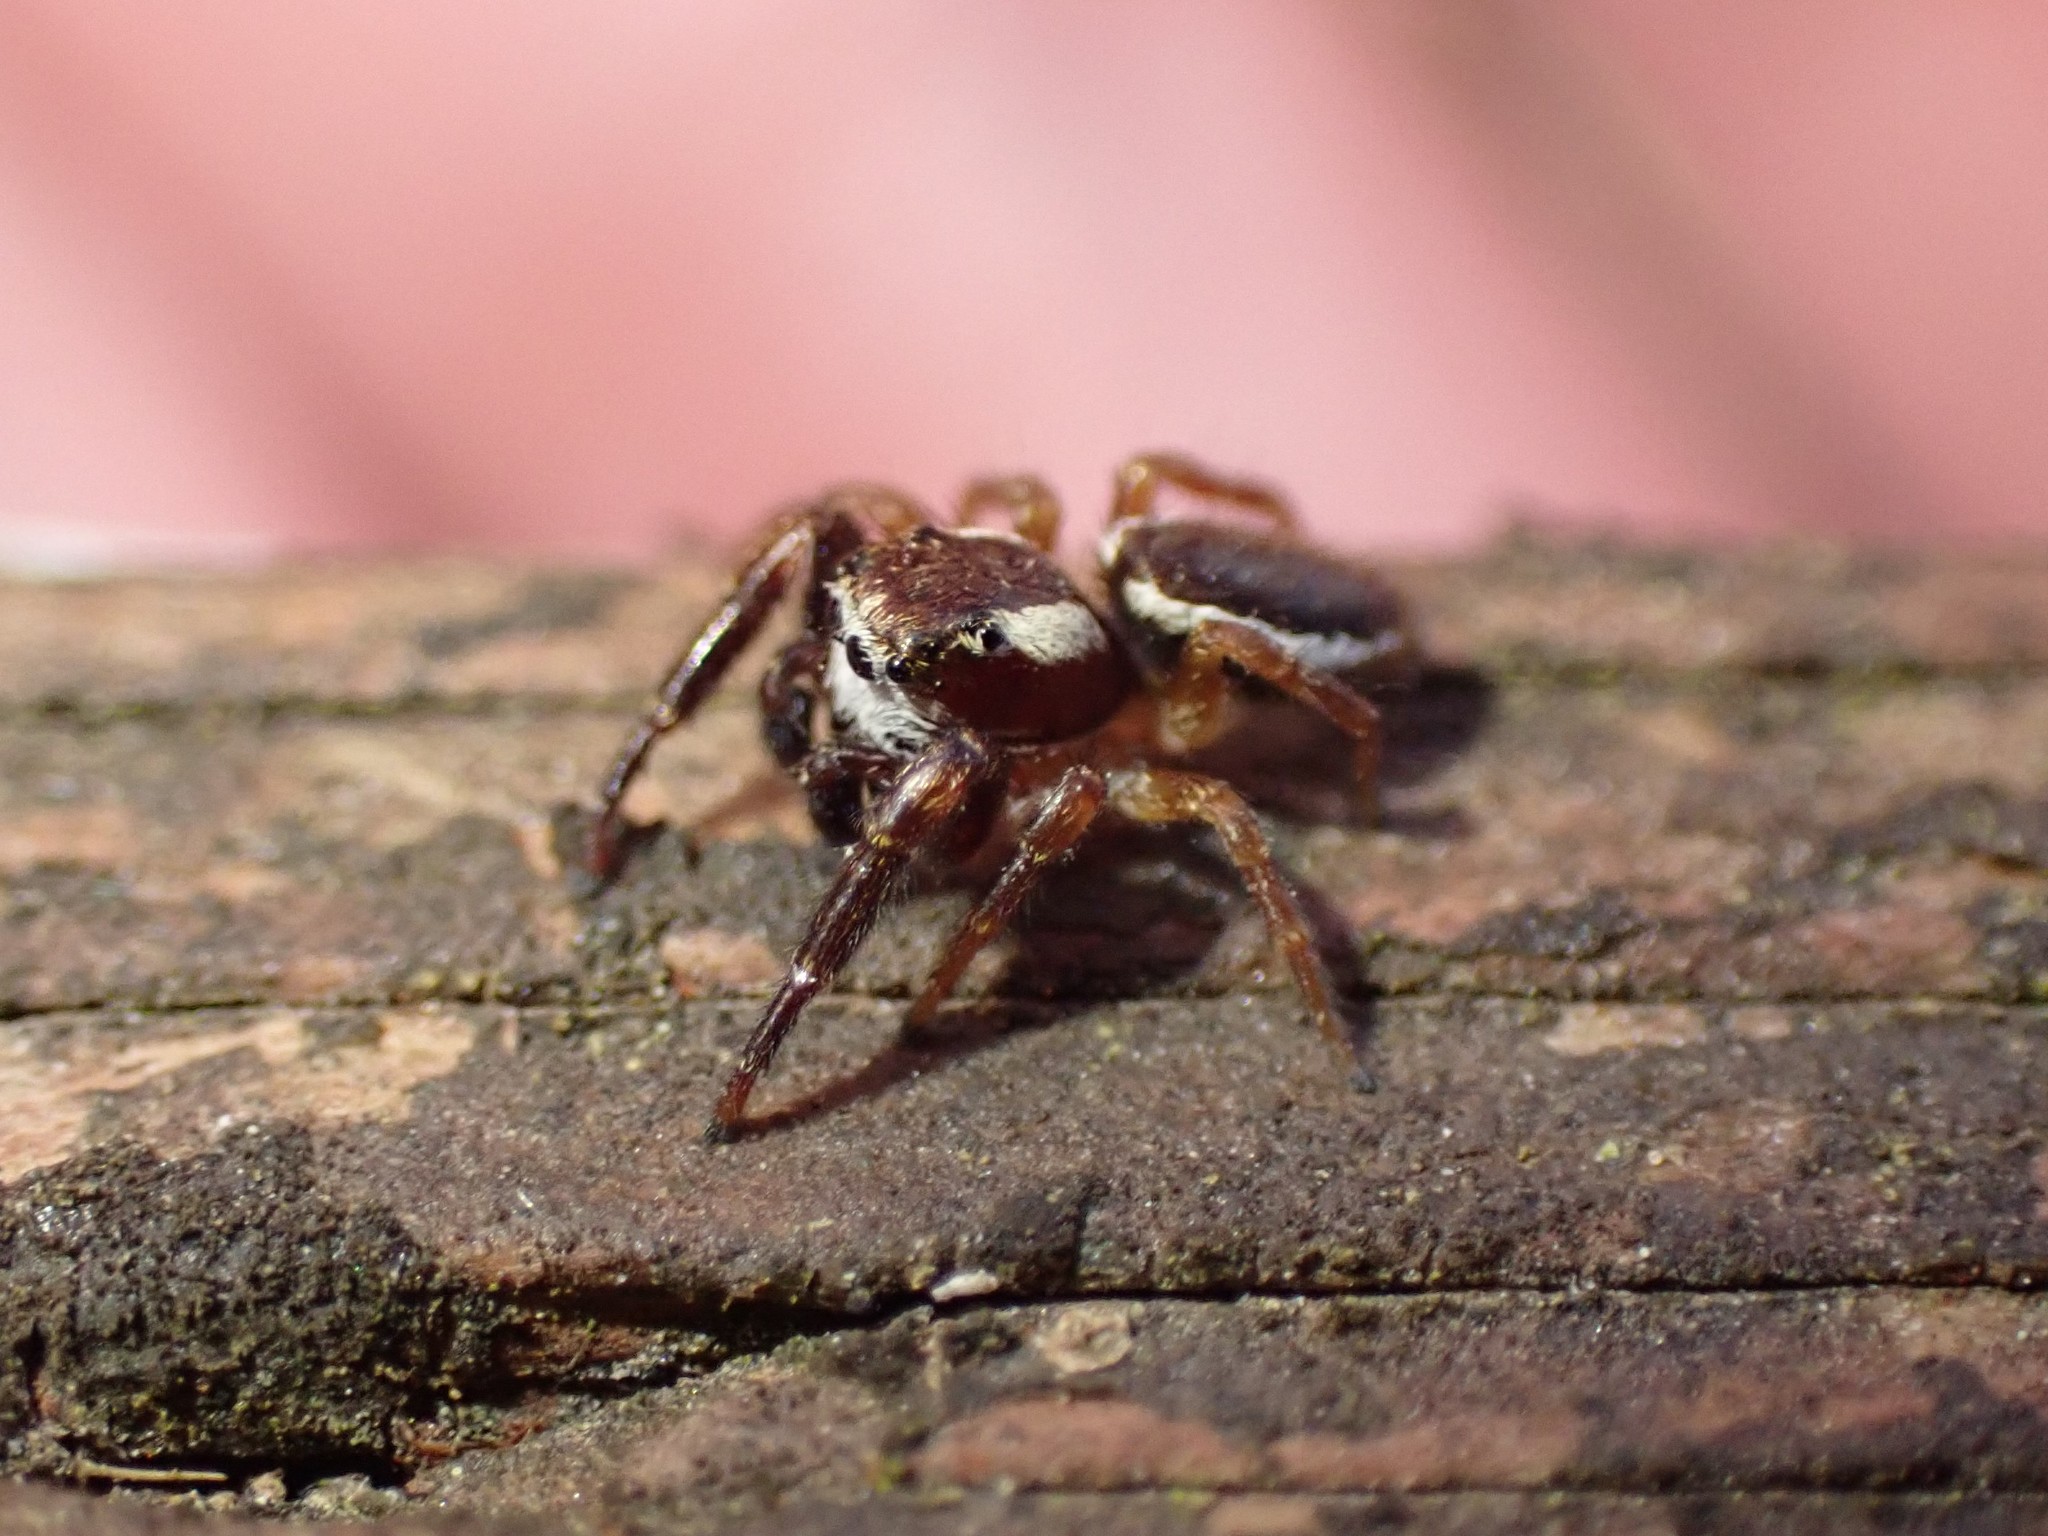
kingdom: Animalia
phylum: Arthropoda
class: Arachnida
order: Araneae
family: Salticidae
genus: Phanias
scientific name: Phanias albeolus
